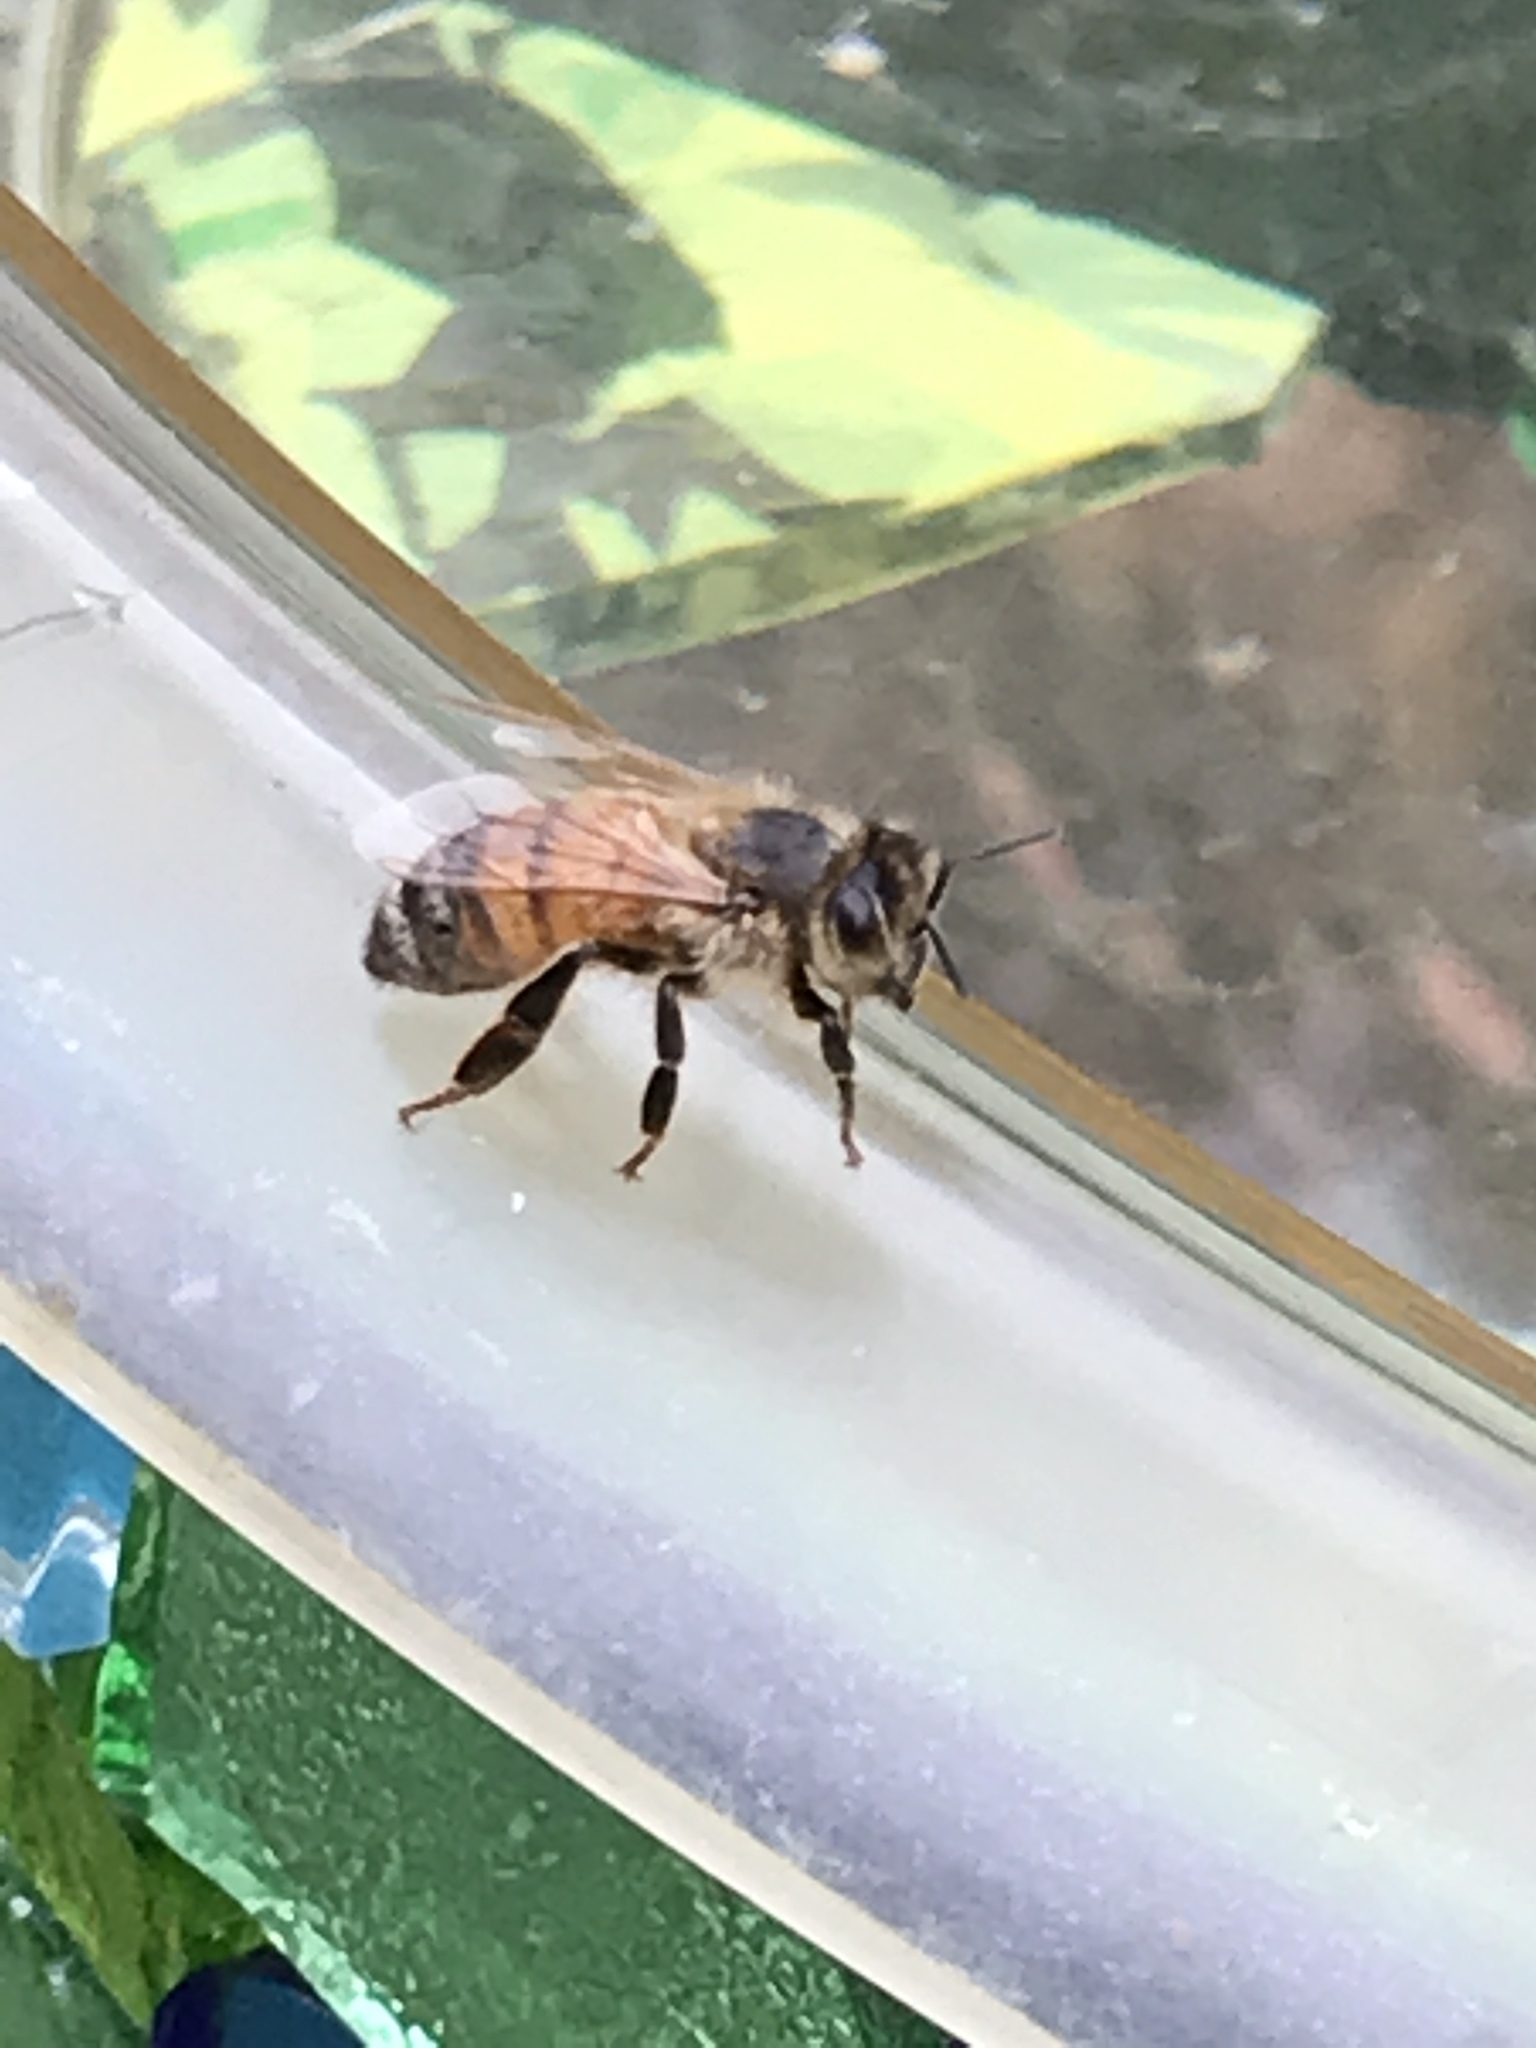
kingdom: Animalia
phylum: Arthropoda
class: Insecta
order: Hymenoptera
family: Apidae
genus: Apis
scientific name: Apis mellifera
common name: Honey bee
